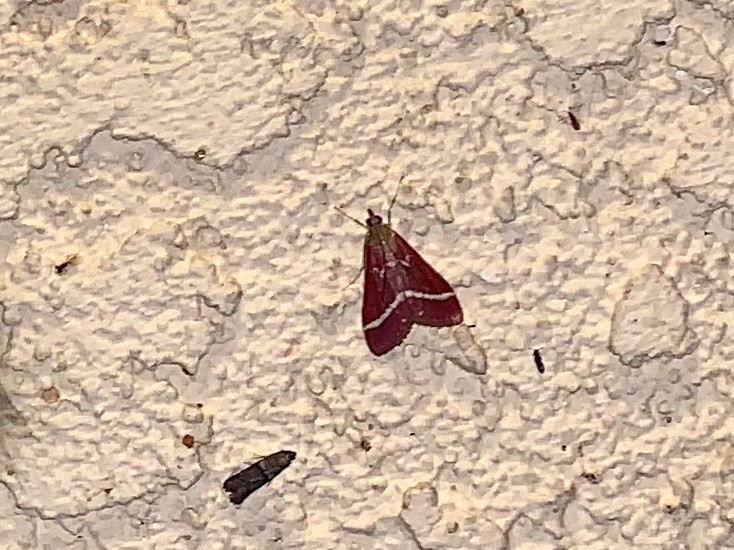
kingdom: Animalia
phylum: Arthropoda
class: Insecta
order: Lepidoptera
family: Crambidae
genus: Pyrausta
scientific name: Pyrausta volupialis
